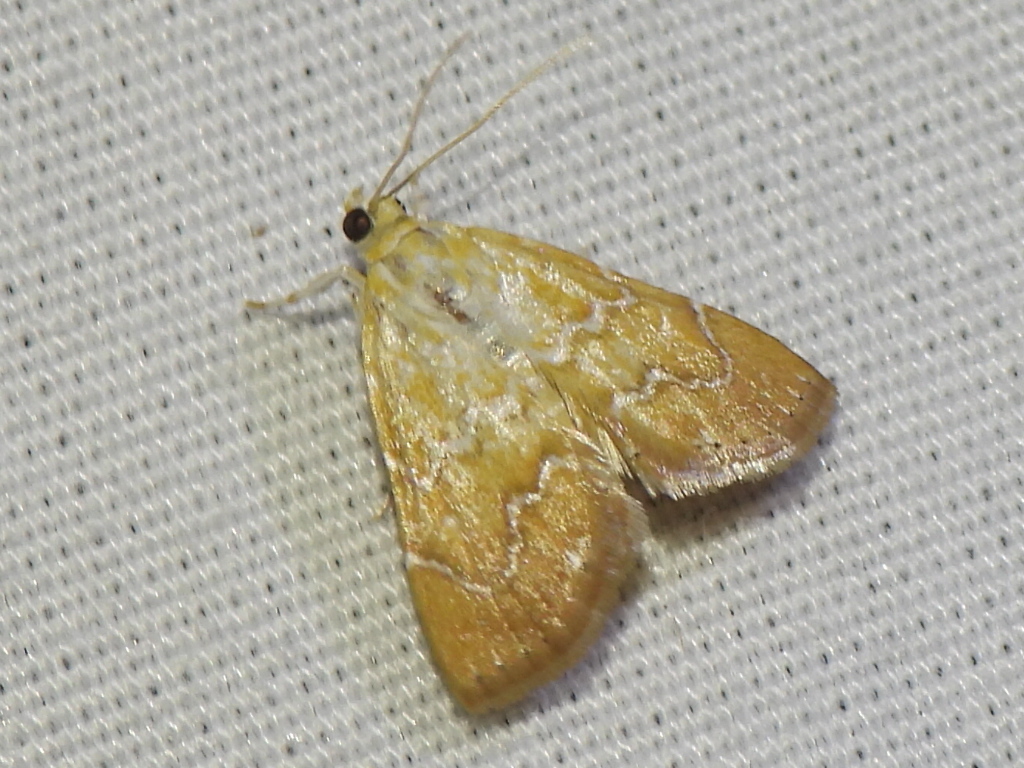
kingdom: Animalia
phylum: Arthropoda
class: Insecta
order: Lepidoptera
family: Crambidae
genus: Glaphyria
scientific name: Glaphyria sesquistrialis
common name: White-roped glaphyria
